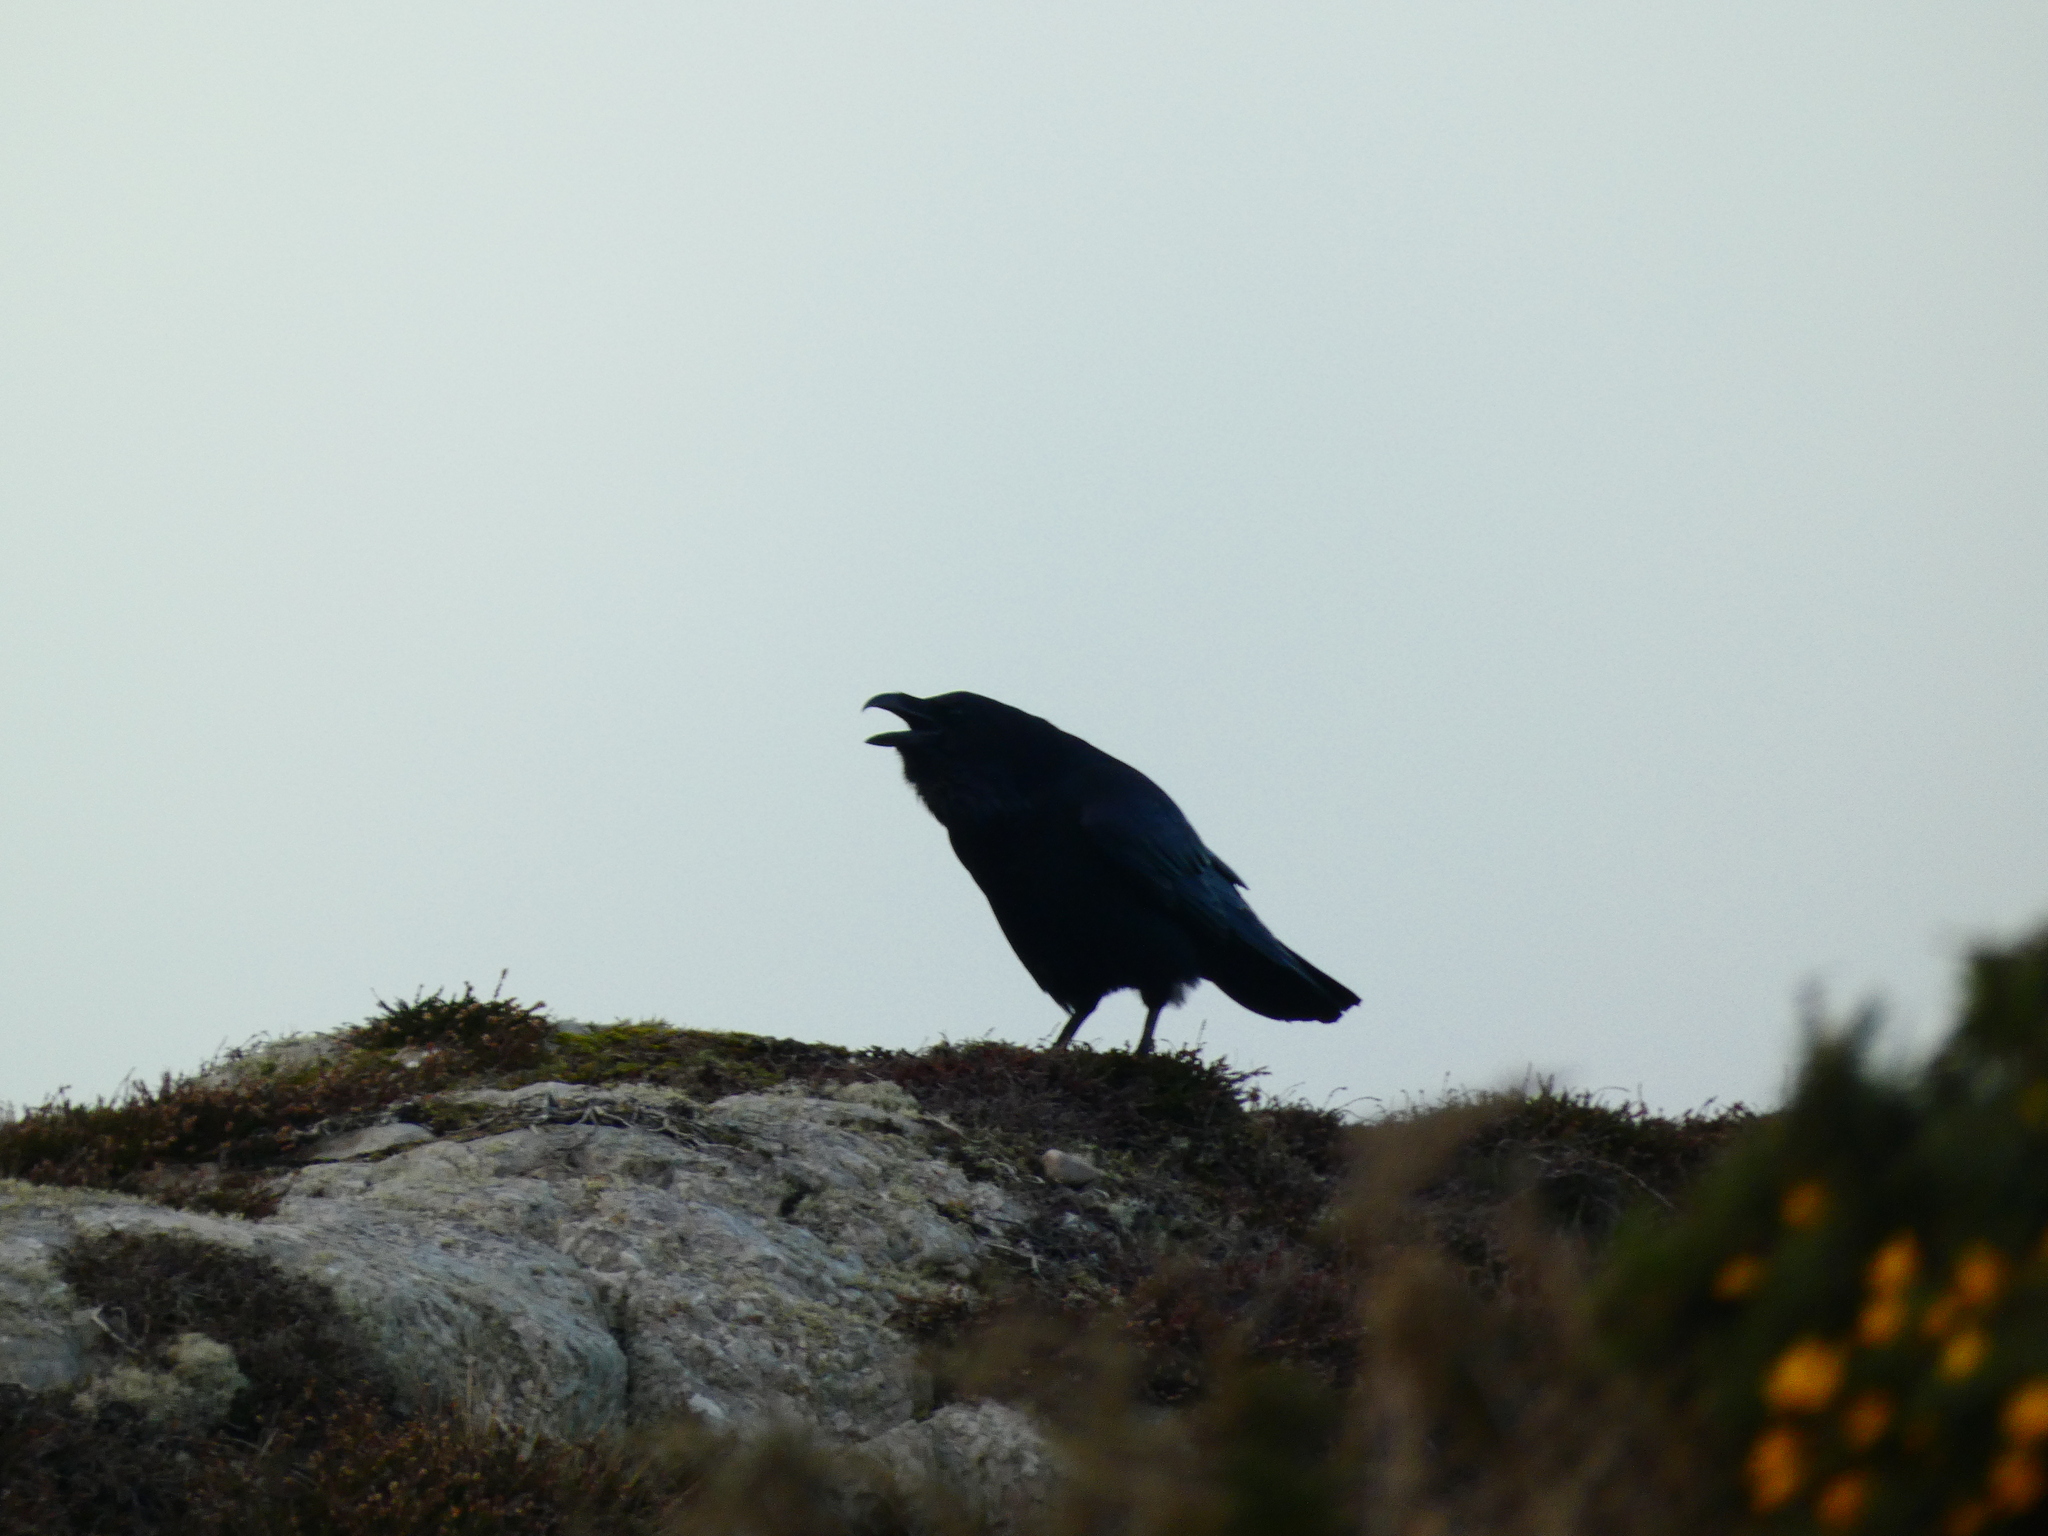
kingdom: Animalia
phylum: Chordata
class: Aves
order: Passeriformes
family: Corvidae
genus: Corvus
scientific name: Corvus corax
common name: Common raven
